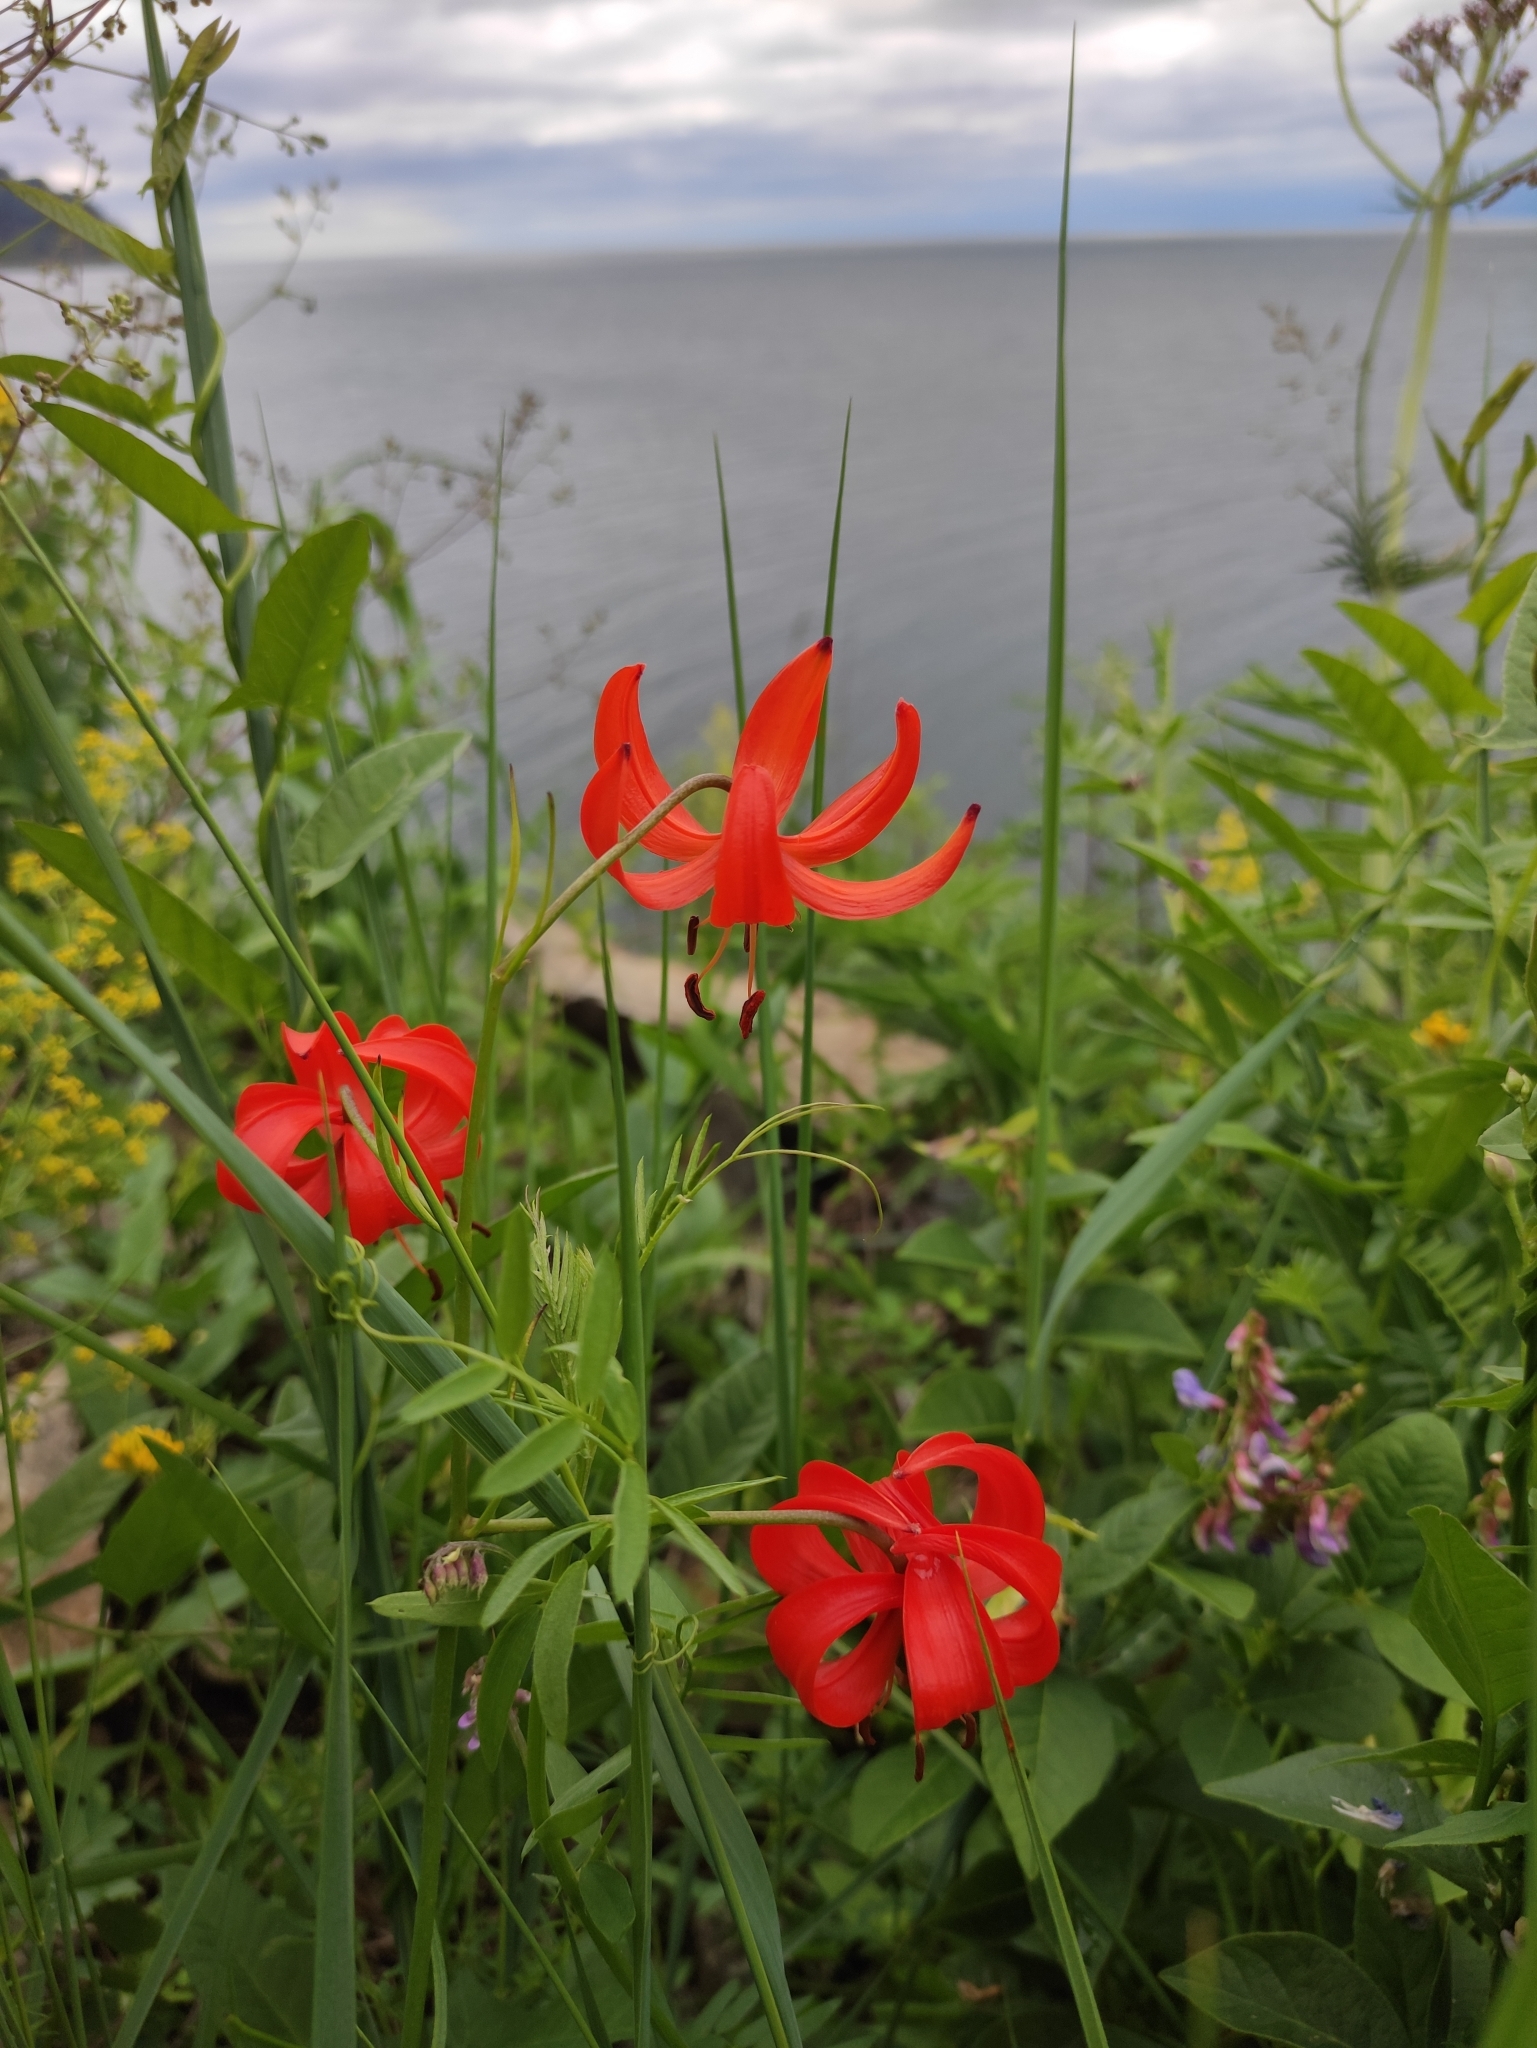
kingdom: Plantae
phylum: Tracheophyta
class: Liliopsida
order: Liliales
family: Liliaceae
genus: Lilium
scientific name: Lilium pumilum
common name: Coral lily
